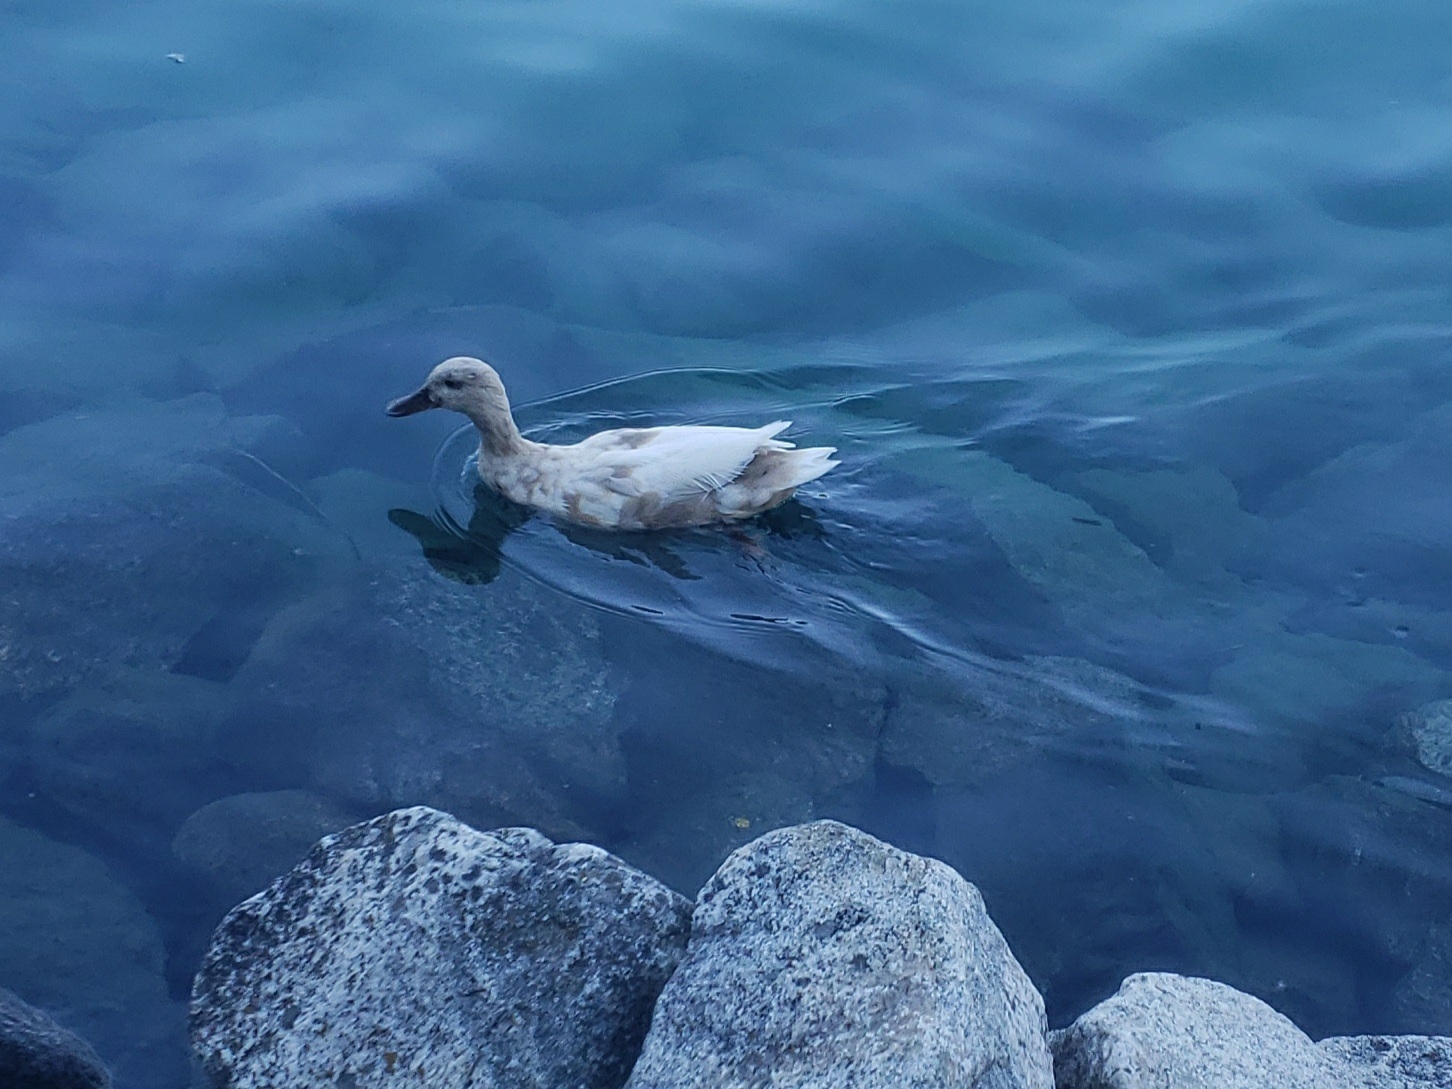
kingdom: Animalia
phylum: Chordata
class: Aves
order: Anseriformes
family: Anatidae
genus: Anas
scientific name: Anas platyrhynchos
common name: Mallard
